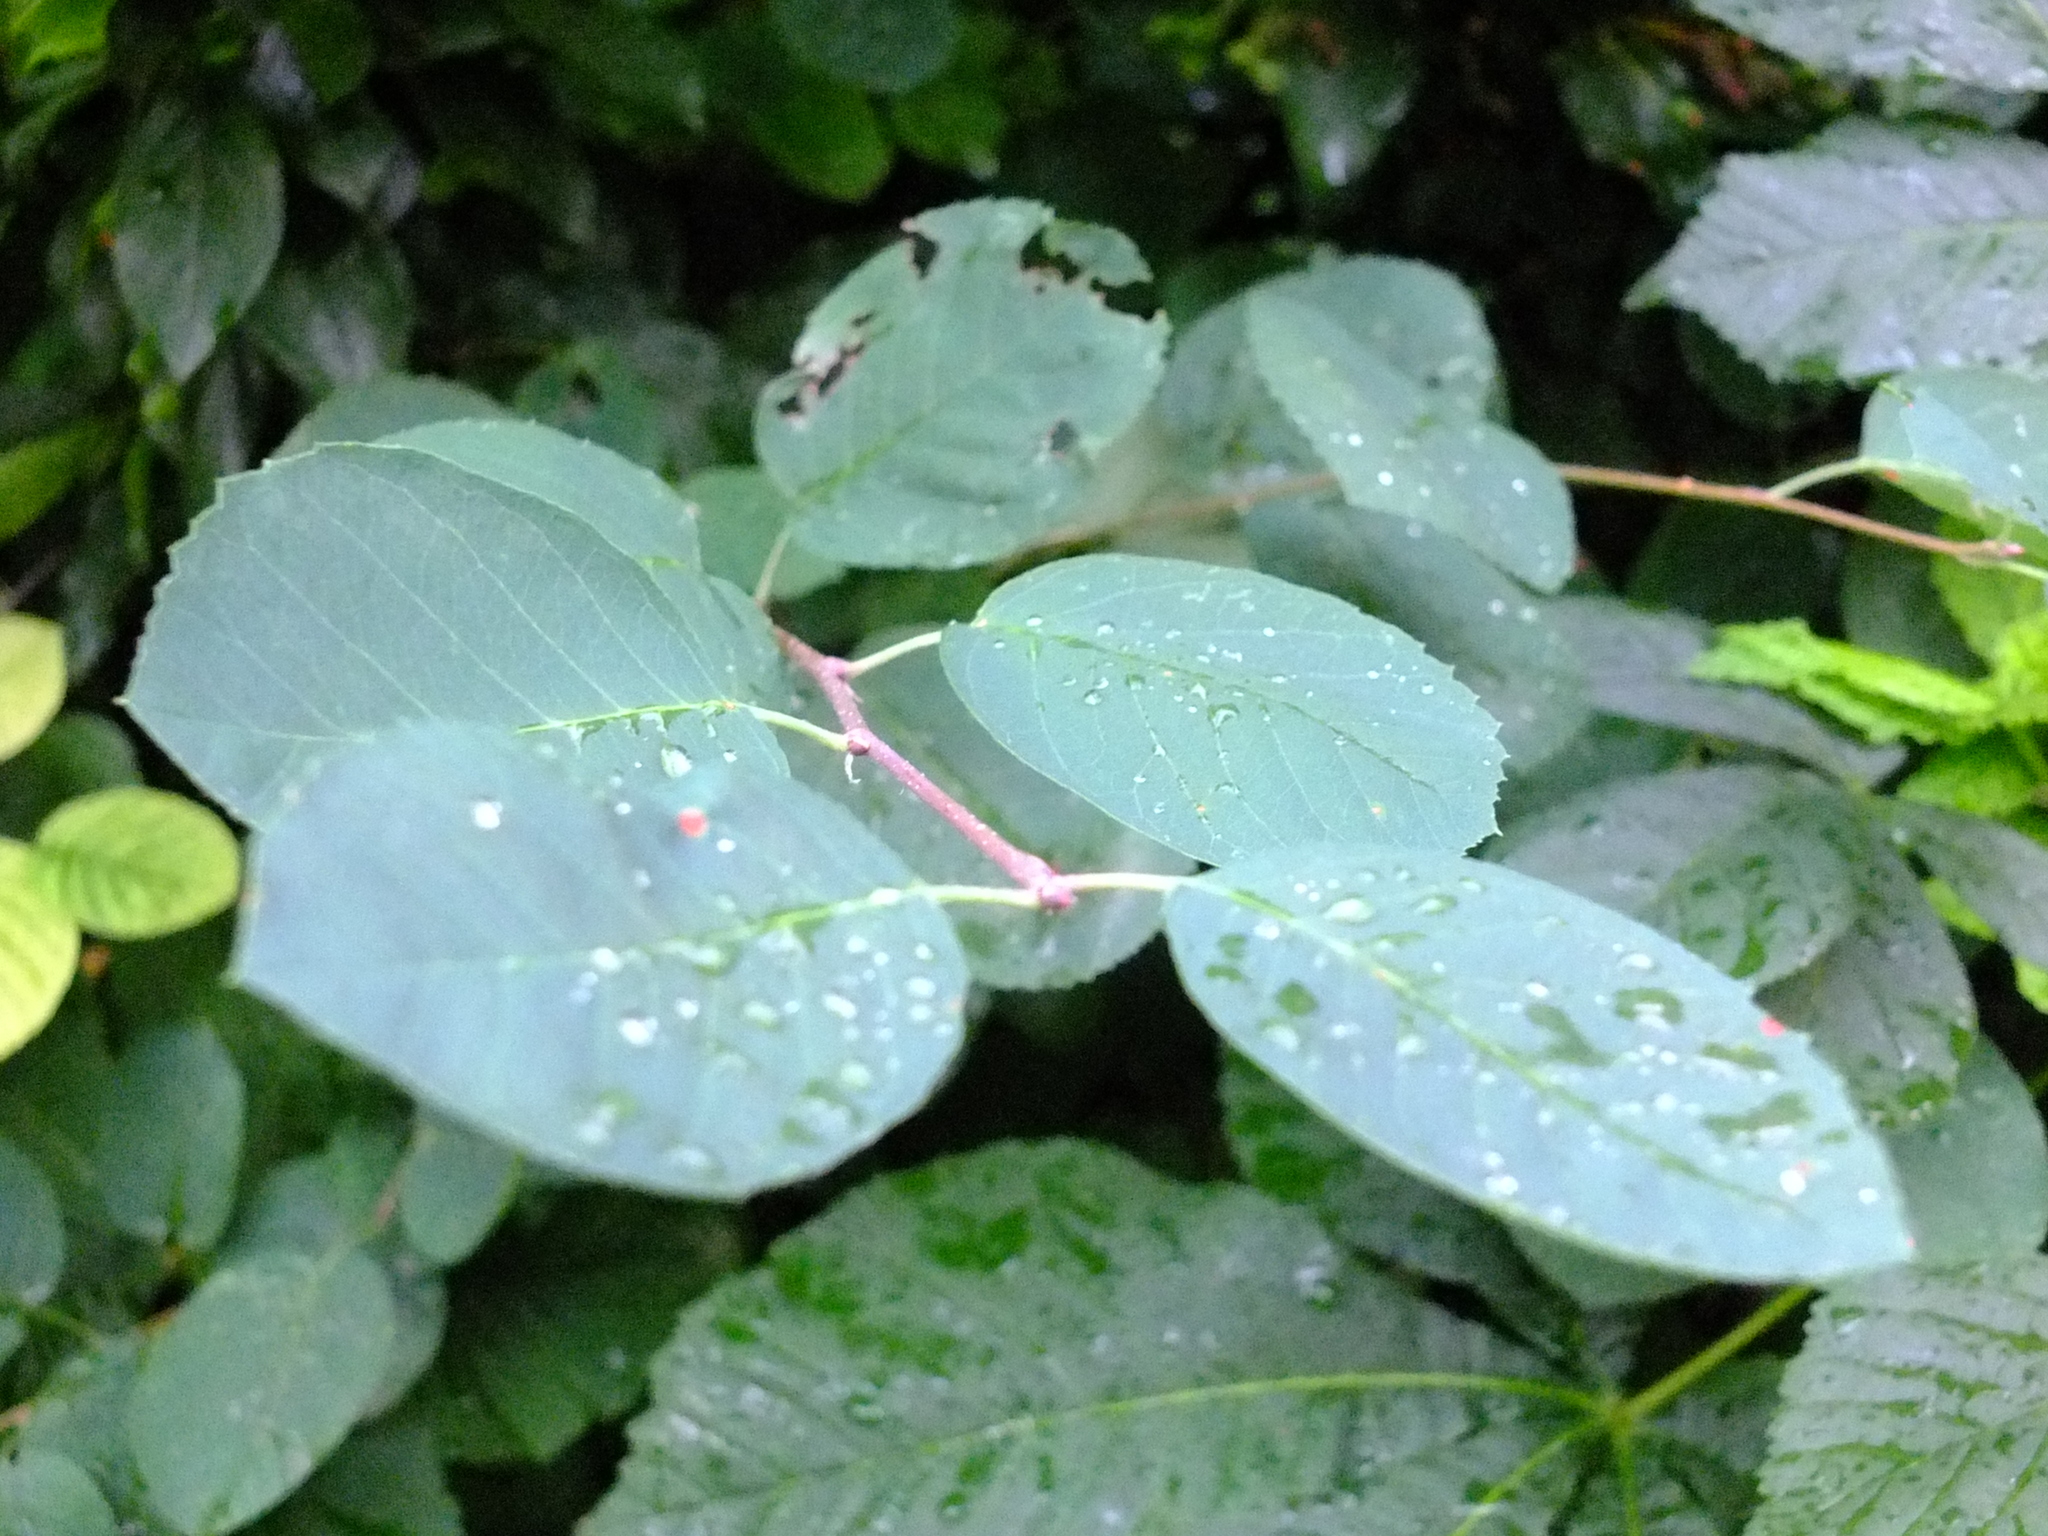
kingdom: Plantae
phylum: Tracheophyta
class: Magnoliopsida
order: Rosales
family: Rosaceae
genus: Amelanchier
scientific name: Amelanchier
